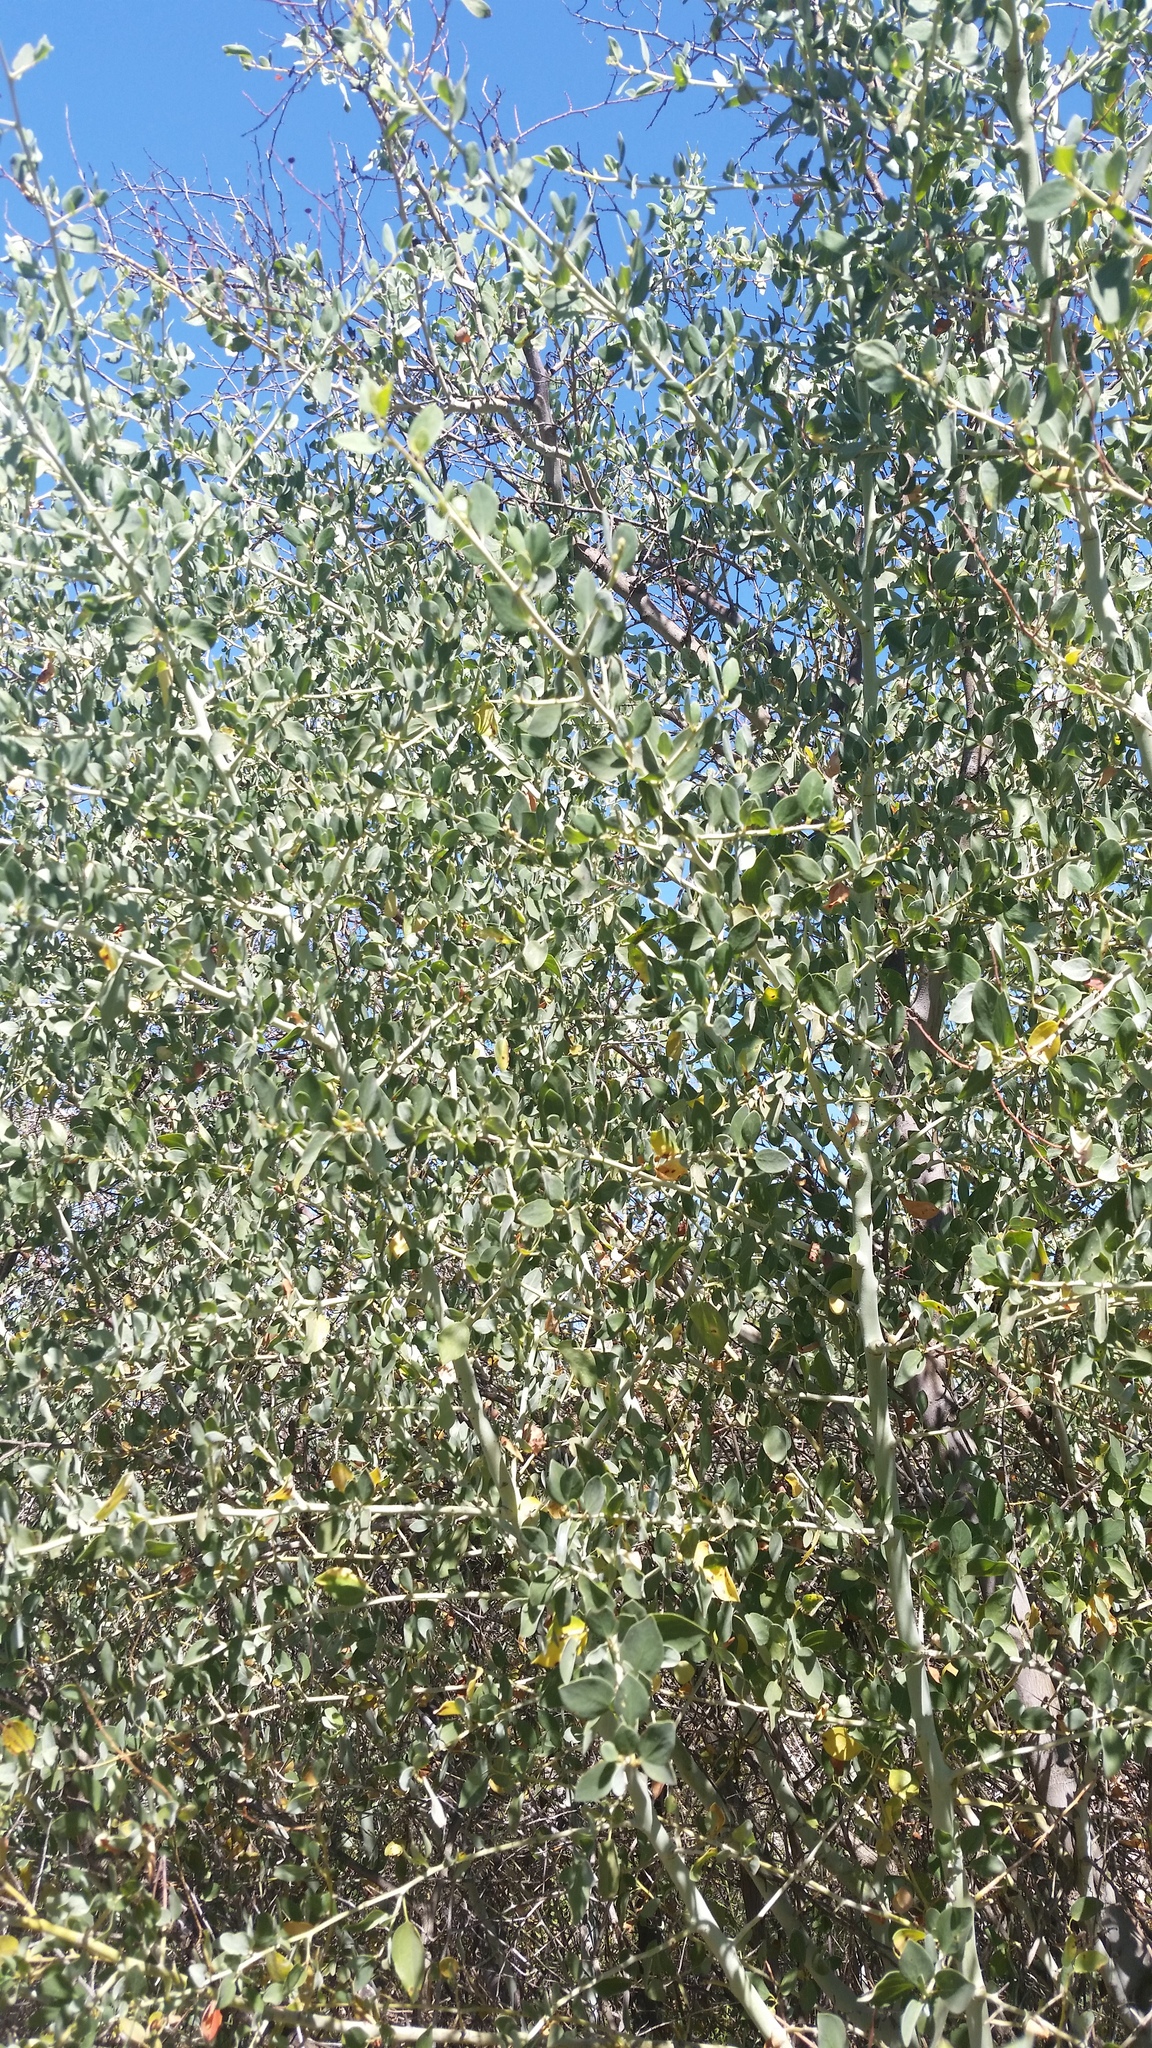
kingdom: Plantae
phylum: Tracheophyta
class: Magnoliopsida
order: Rosales
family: Rhamnaceae
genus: Ceanothus
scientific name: Ceanothus leucodermis
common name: Chaparral whitethorn
